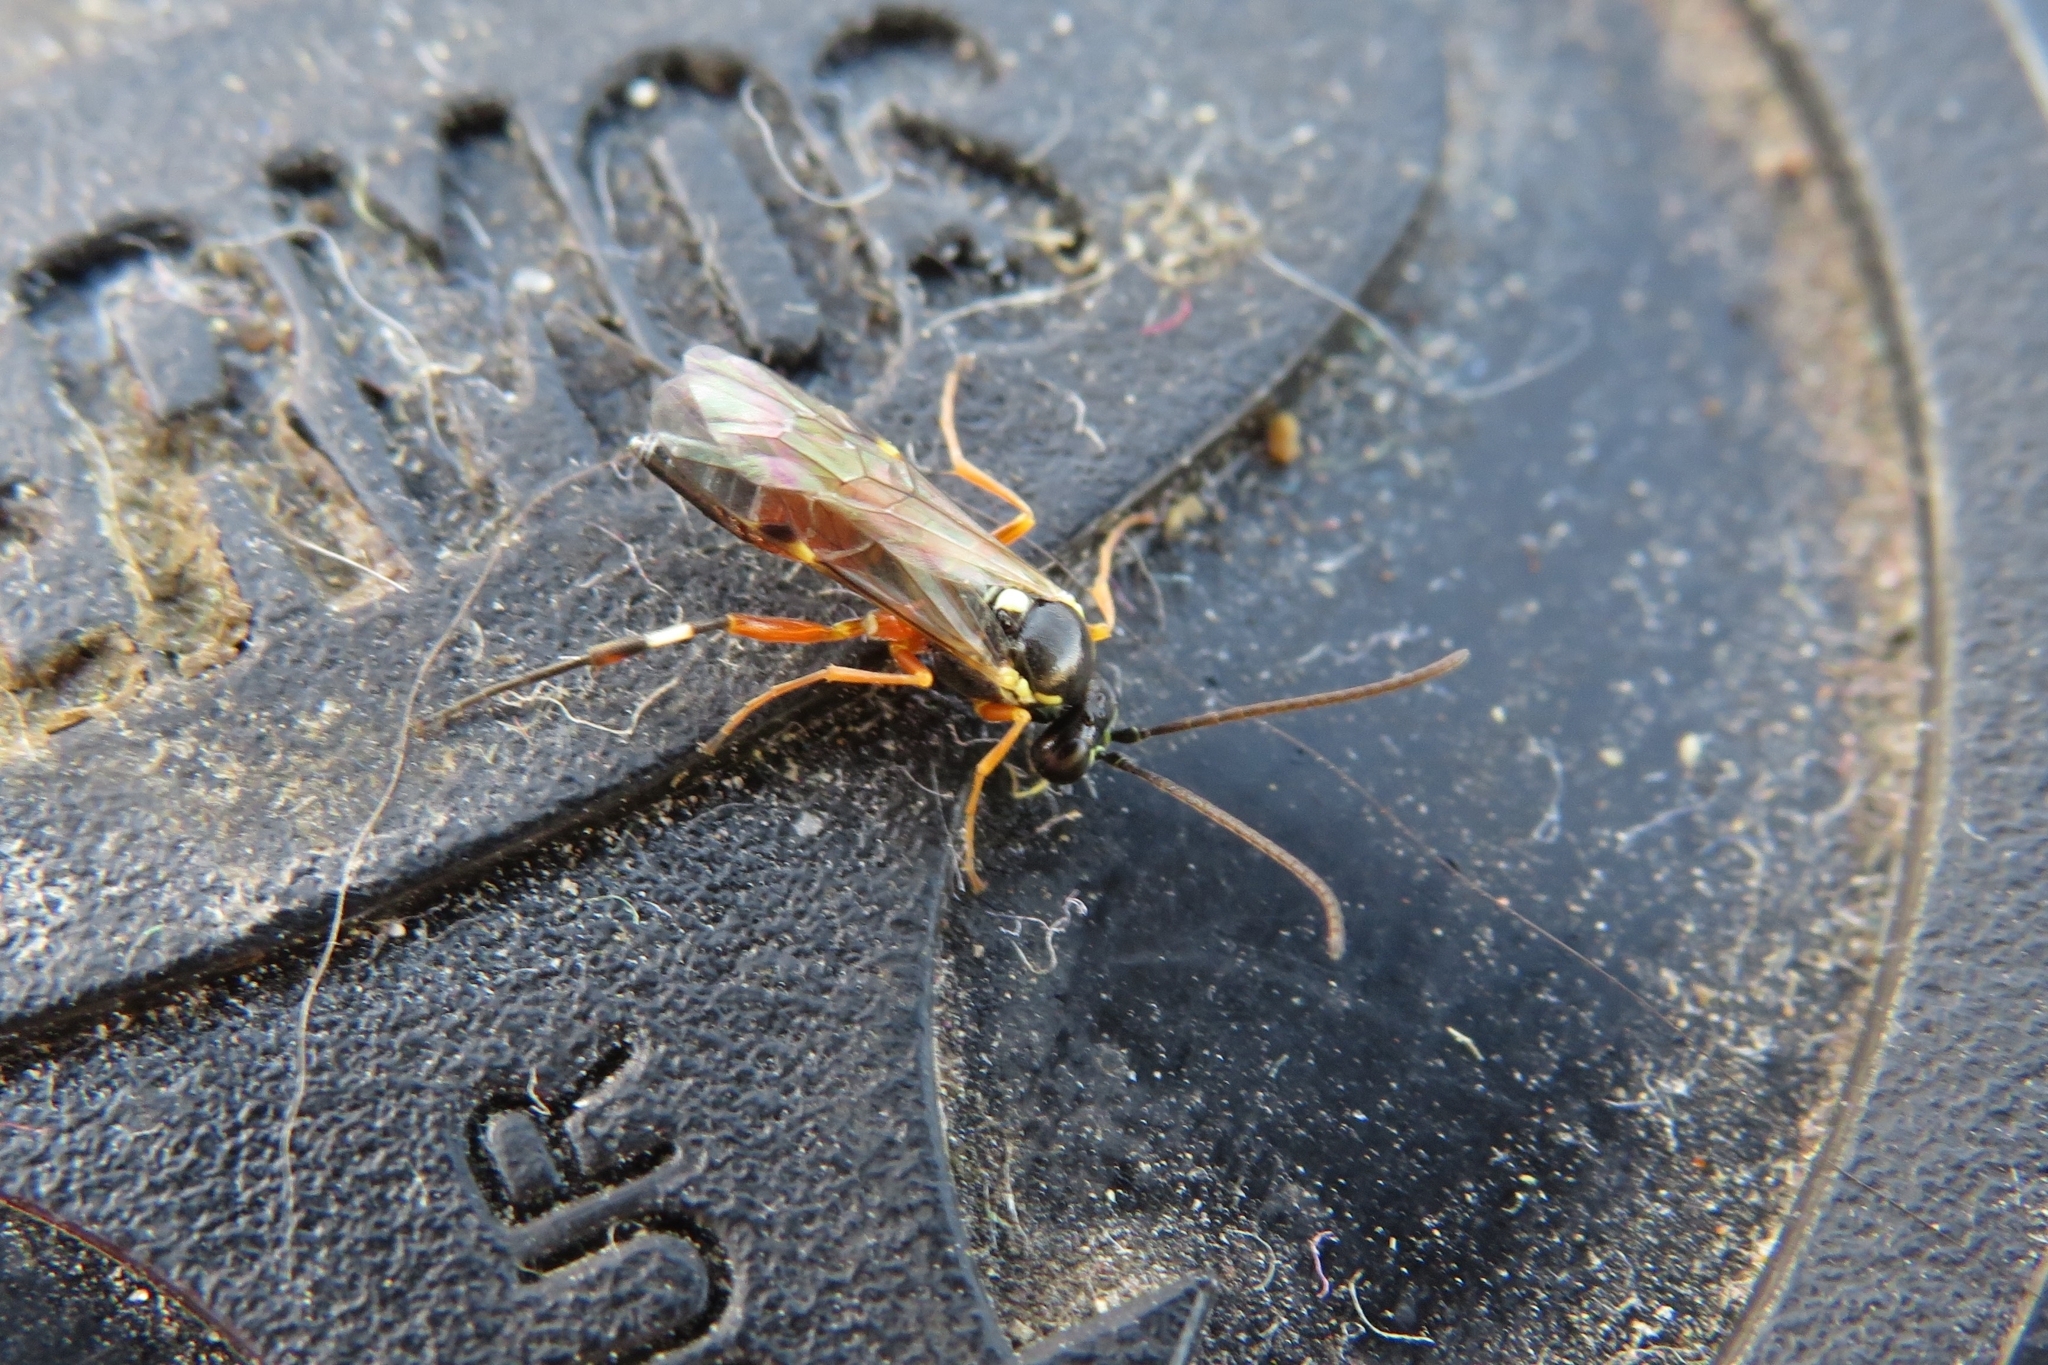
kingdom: Animalia
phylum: Arthropoda
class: Insecta
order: Hymenoptera
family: Ichneumonidae
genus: Diplazon
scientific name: Diplazon laetatorius
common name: Parasitoid wasp
